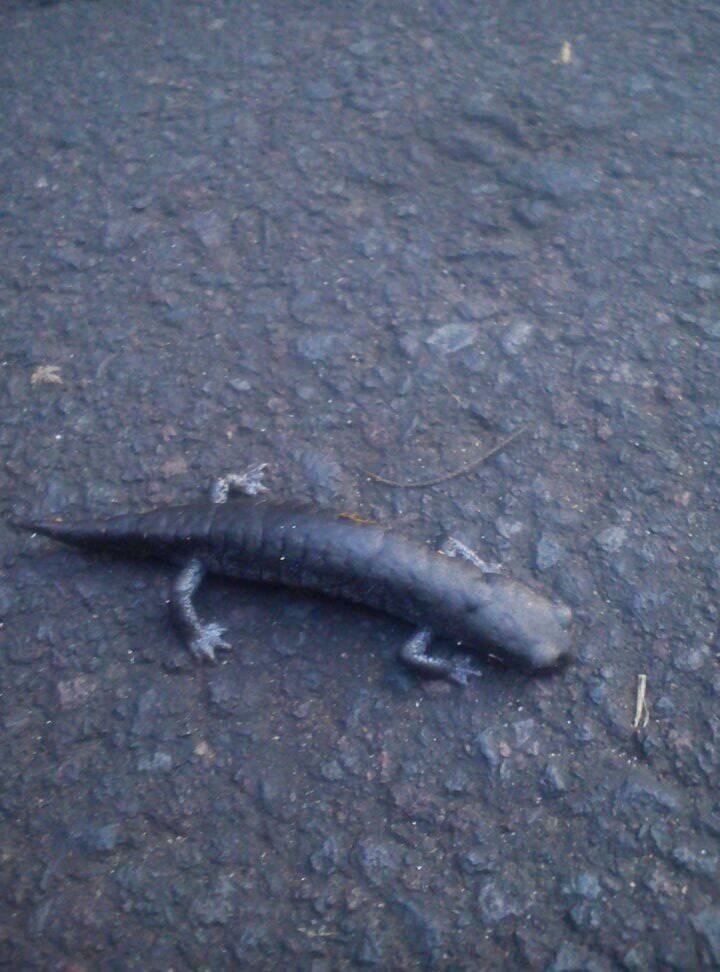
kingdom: Animalia
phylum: Chordata
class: Amphibia
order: Caudata
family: Plethodontidae
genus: Aquiloeurycea
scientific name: Aquiloeurycea cafetalera
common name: Coffee grove salamander
